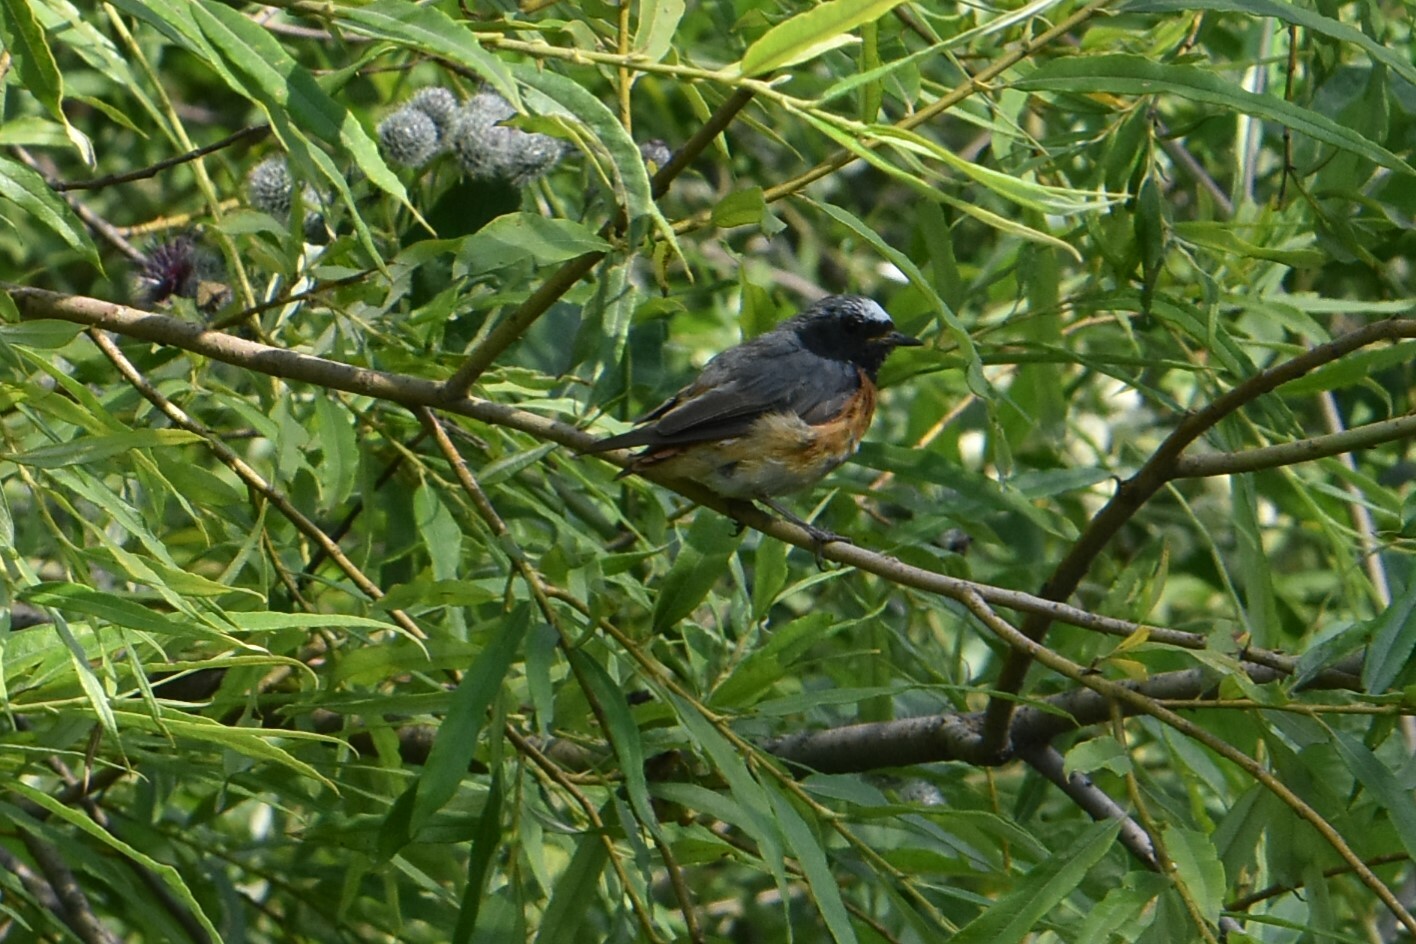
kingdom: Animalia
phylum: Chordata
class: Aves
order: Passeriformes
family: Muscicapidae
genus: Phoenicurus
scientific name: Phoenicurus phoenicurus
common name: Common redstart
